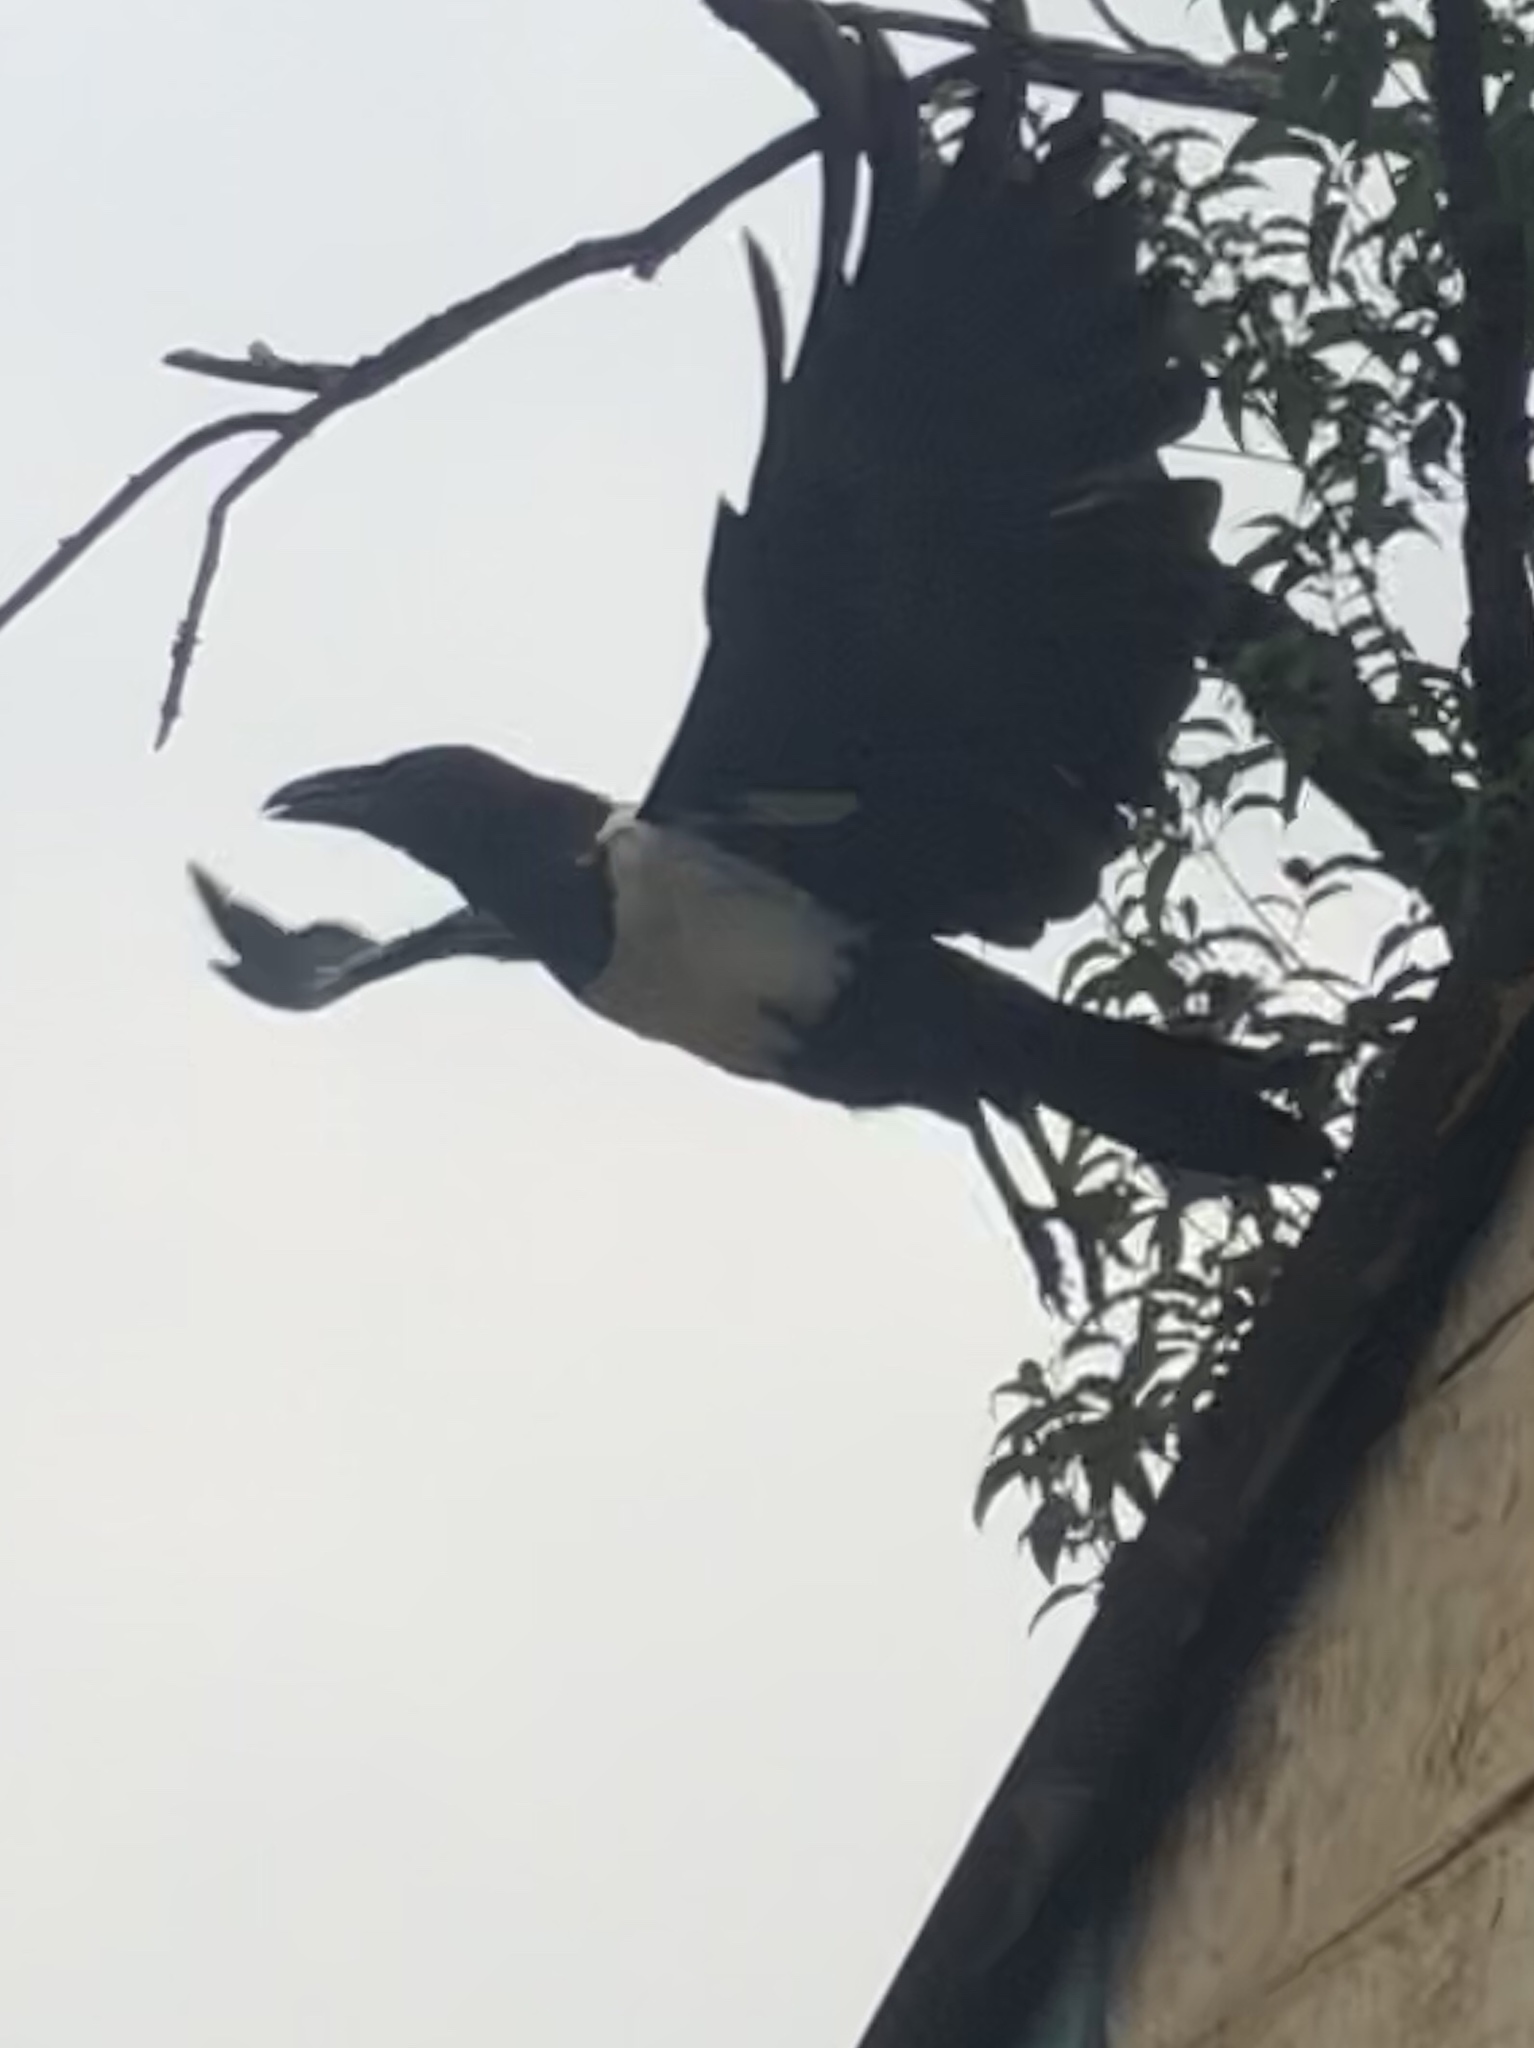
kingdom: Animalia
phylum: Chordata
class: Aves
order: Passeriformes
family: Corvidae
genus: Corvus
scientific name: Corvus albus
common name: Pied crow
